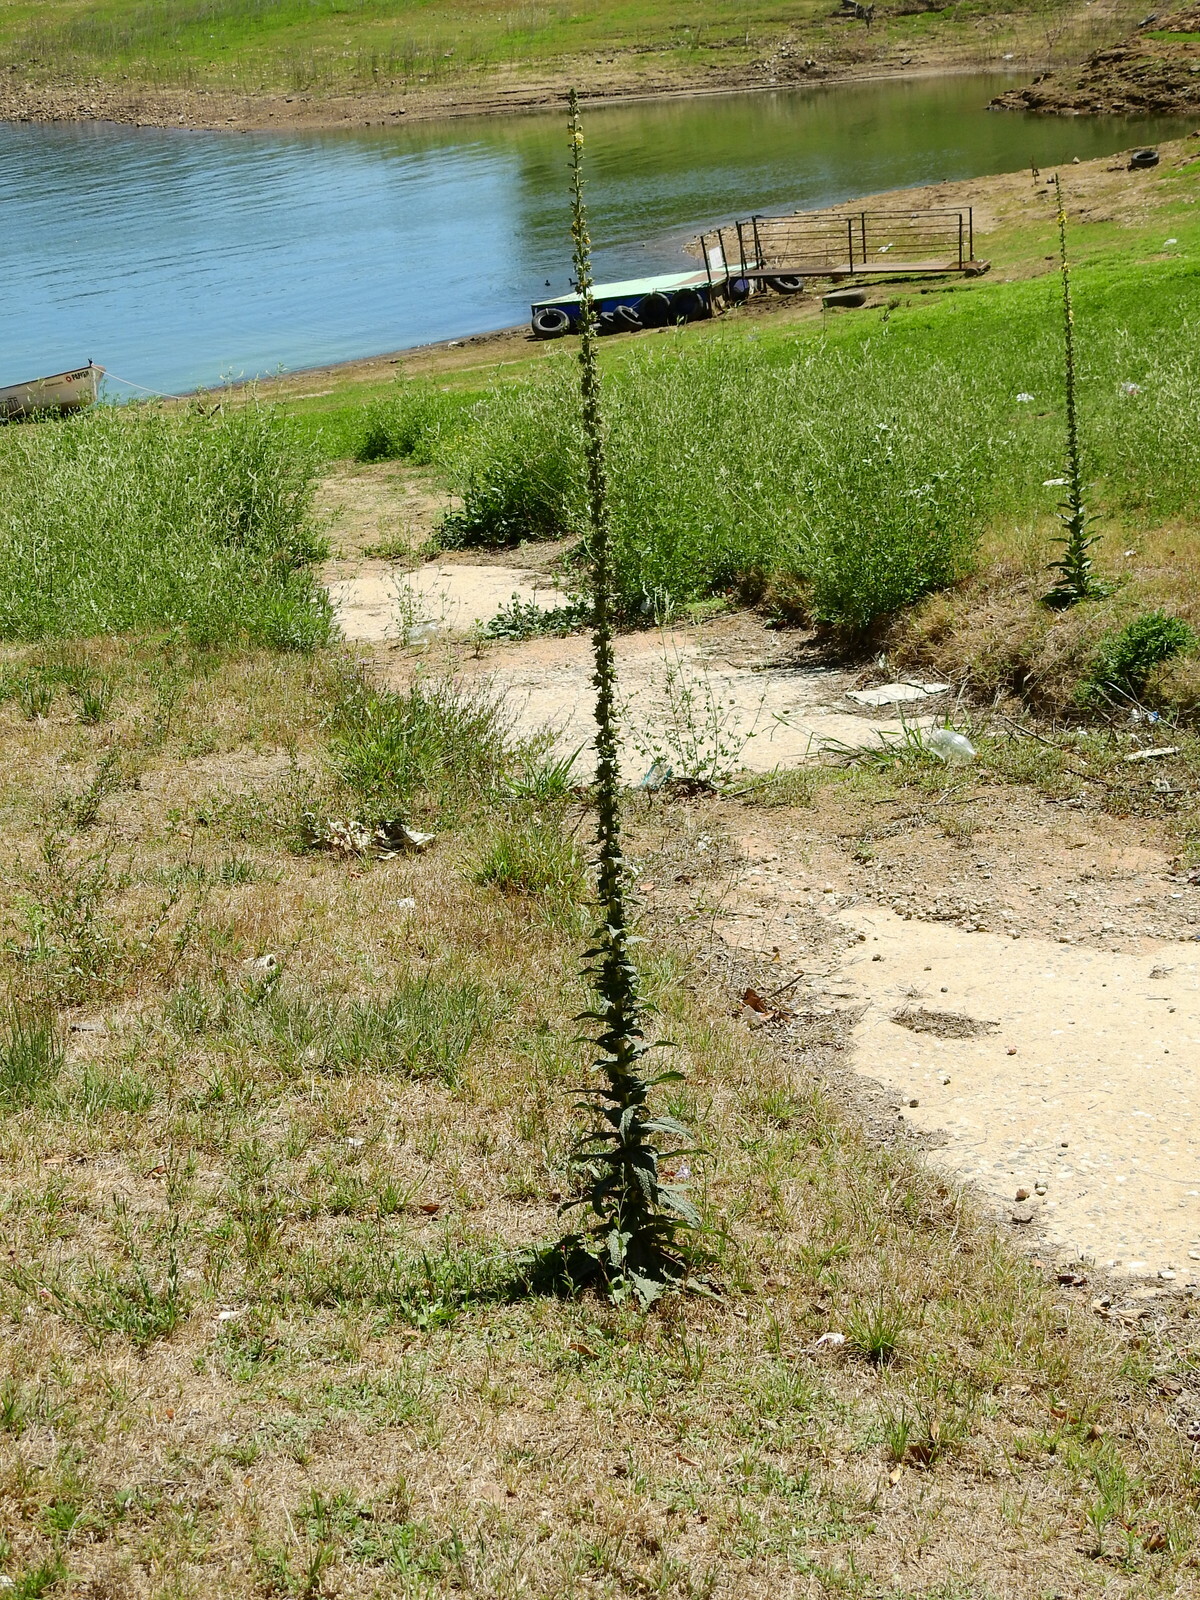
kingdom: Plantae
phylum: Tracheophyta
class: Magnoliopsida
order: Lamiales
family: Scrophulariaceae
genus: Verbascum
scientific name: Verbascum virgatum
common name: Twiggy mullein
